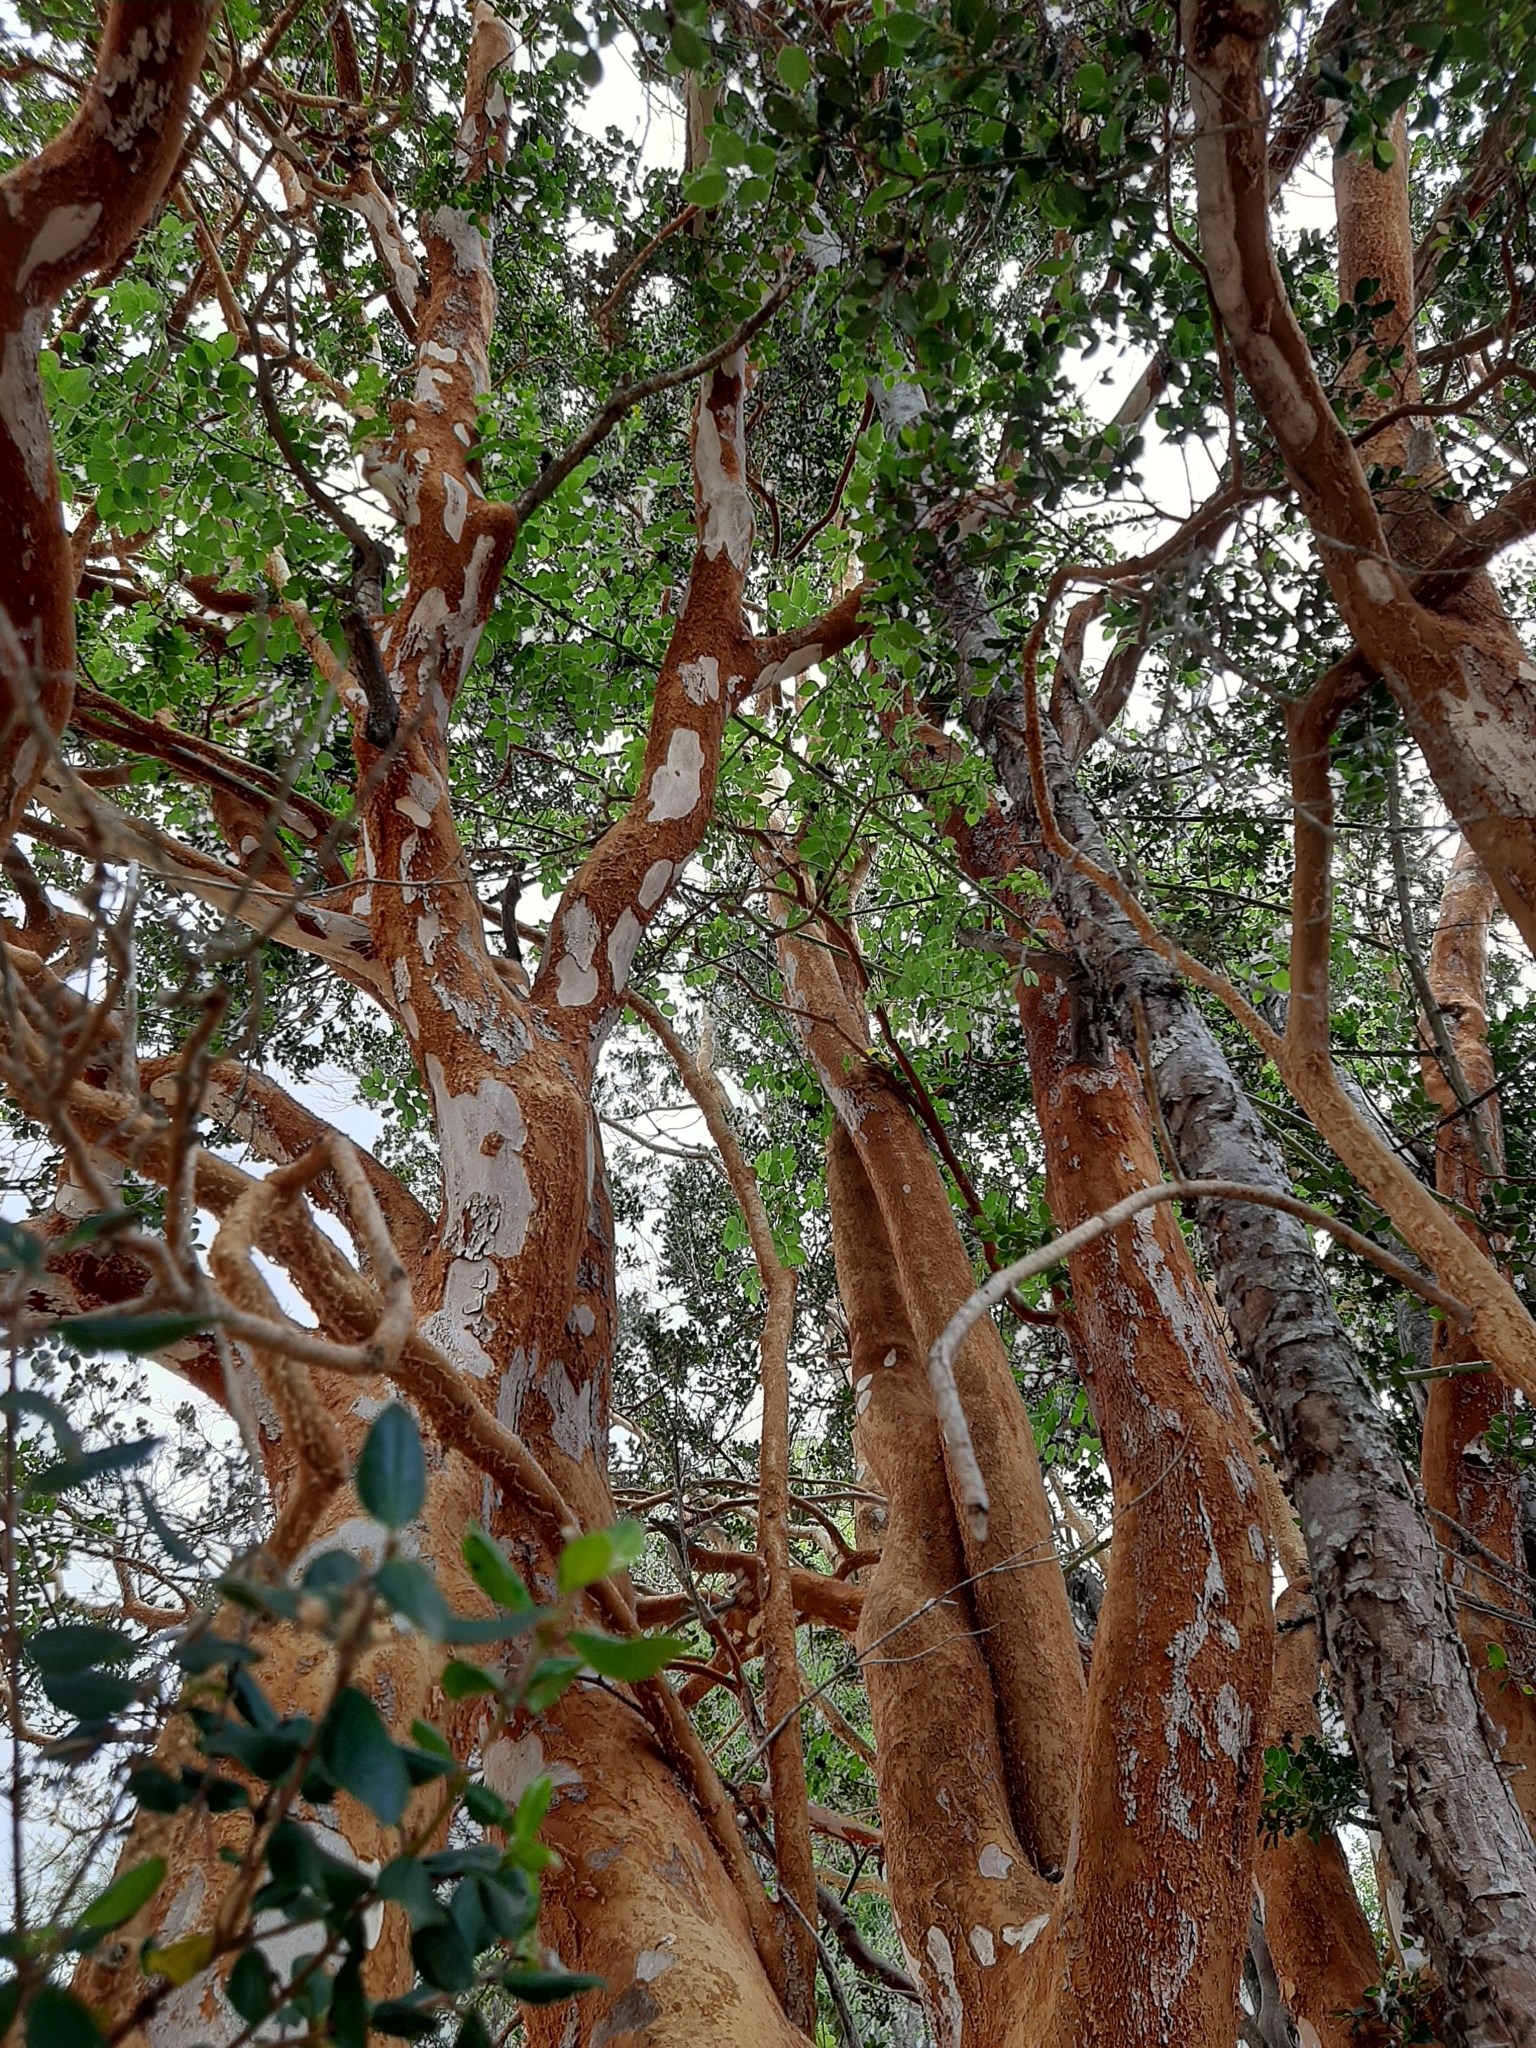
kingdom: Plantae
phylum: Tracheophyta
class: Magnoliopsida
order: Myrtales
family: Myrtaceae
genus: Luma
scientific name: Luma apiculata
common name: Chilean myrtle
